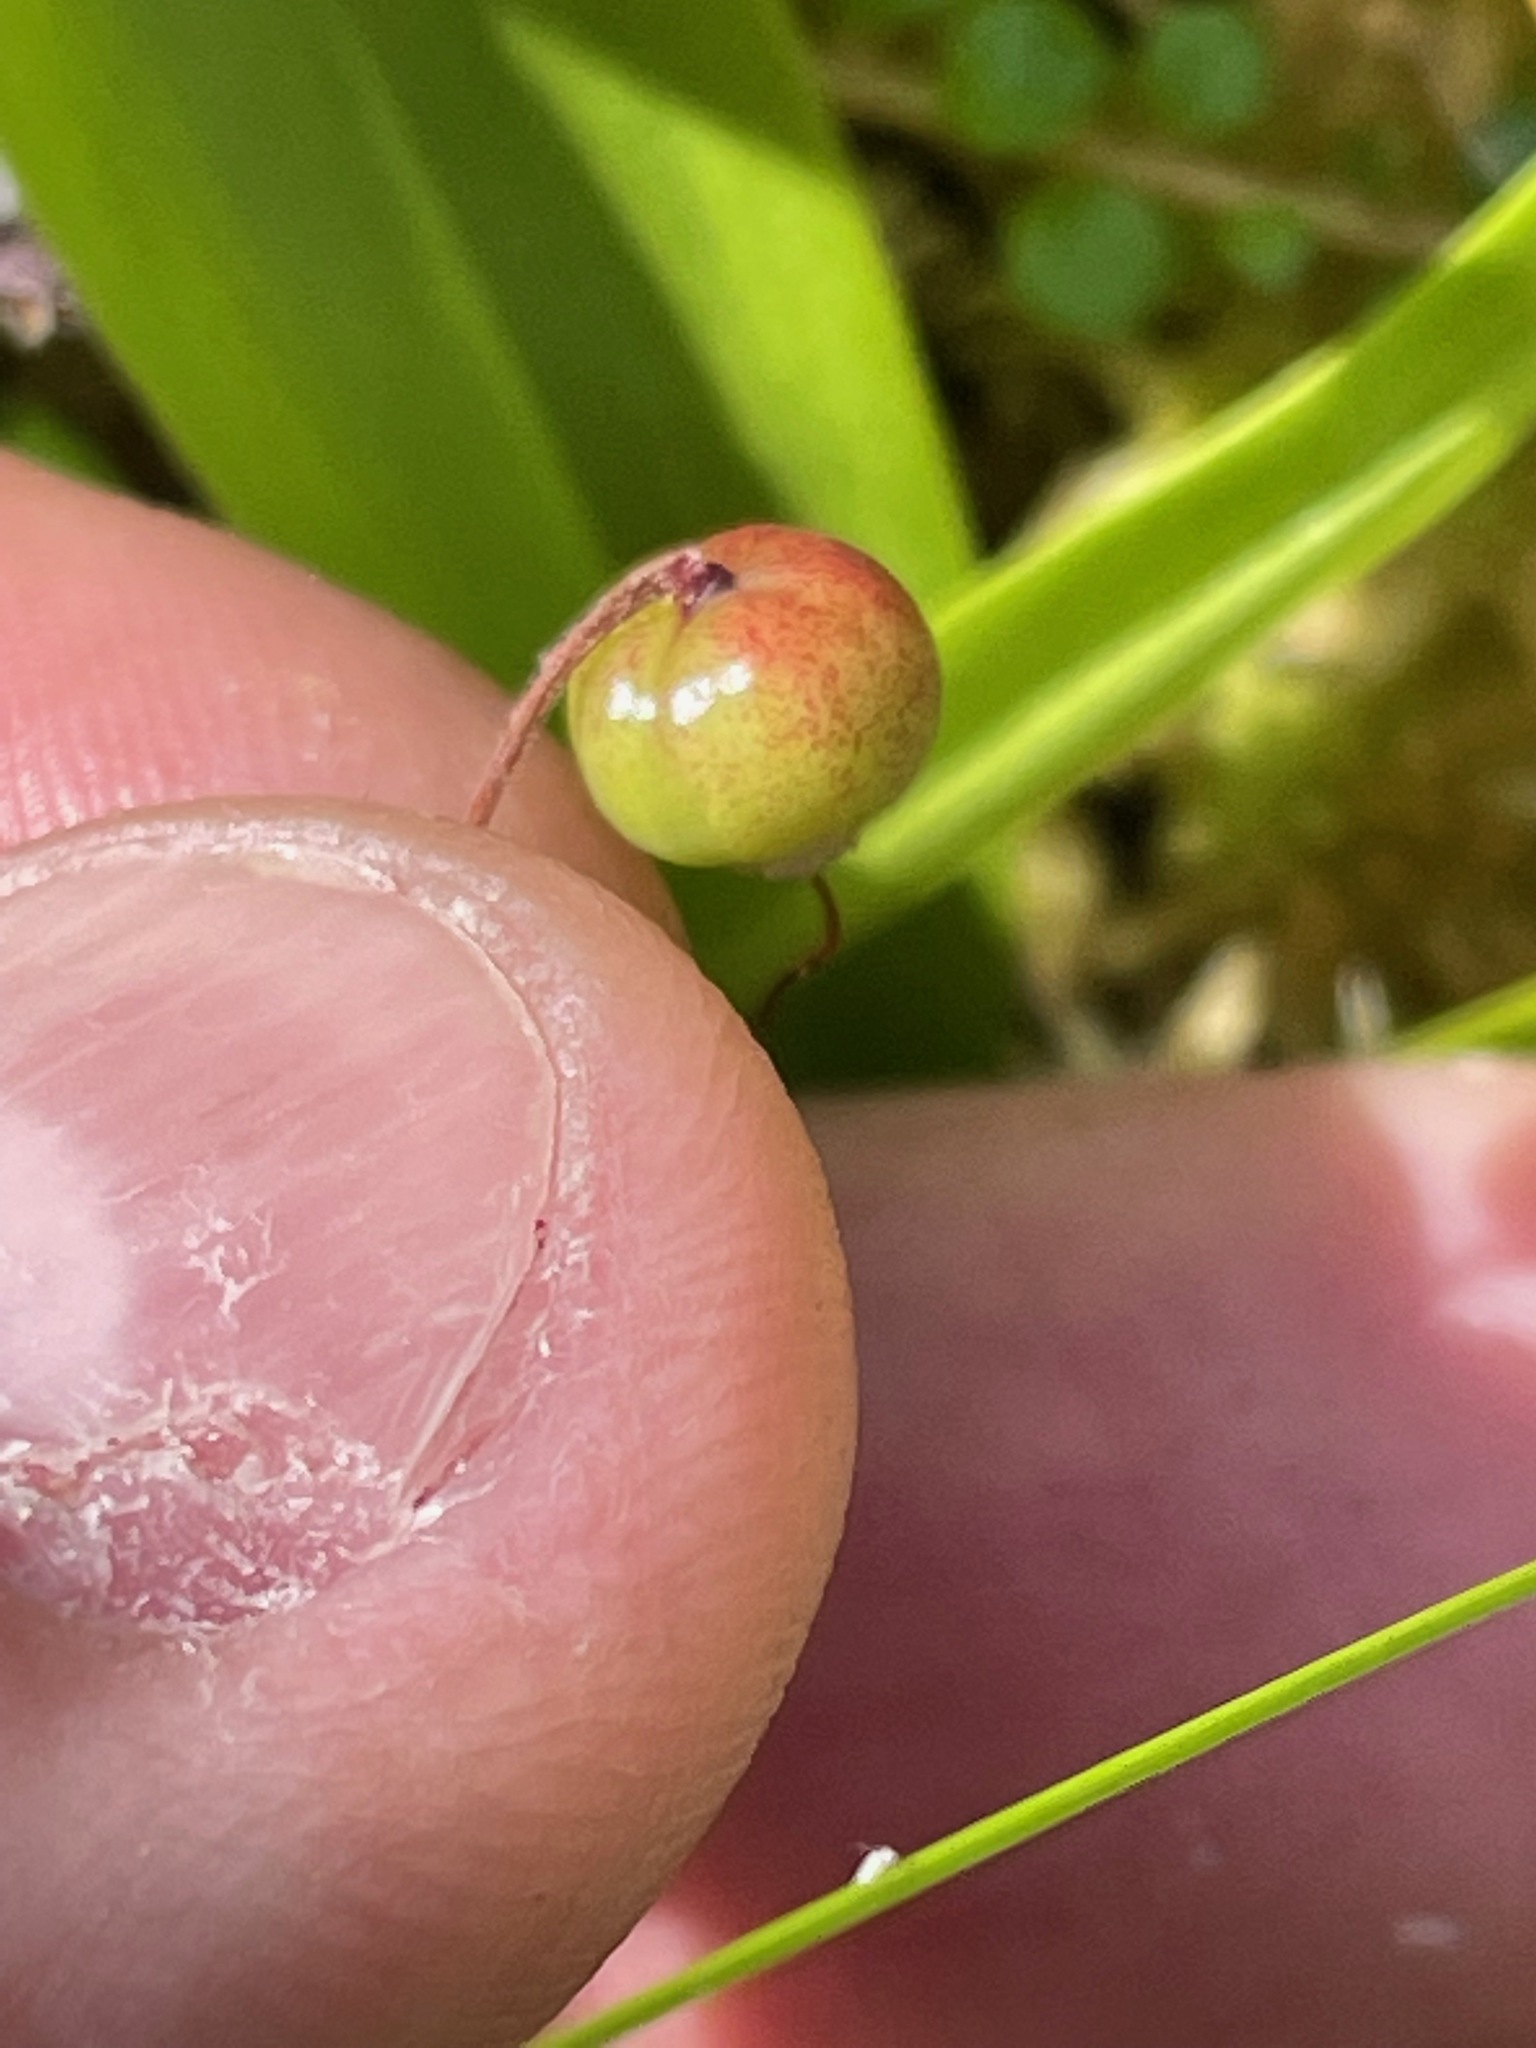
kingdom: Plantae
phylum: Tracheophyta
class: Magnoliopsida
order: Ericales
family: Ericaceae
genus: Vaccinium
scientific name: Vaccinium oxycoccos
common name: Cranberry
